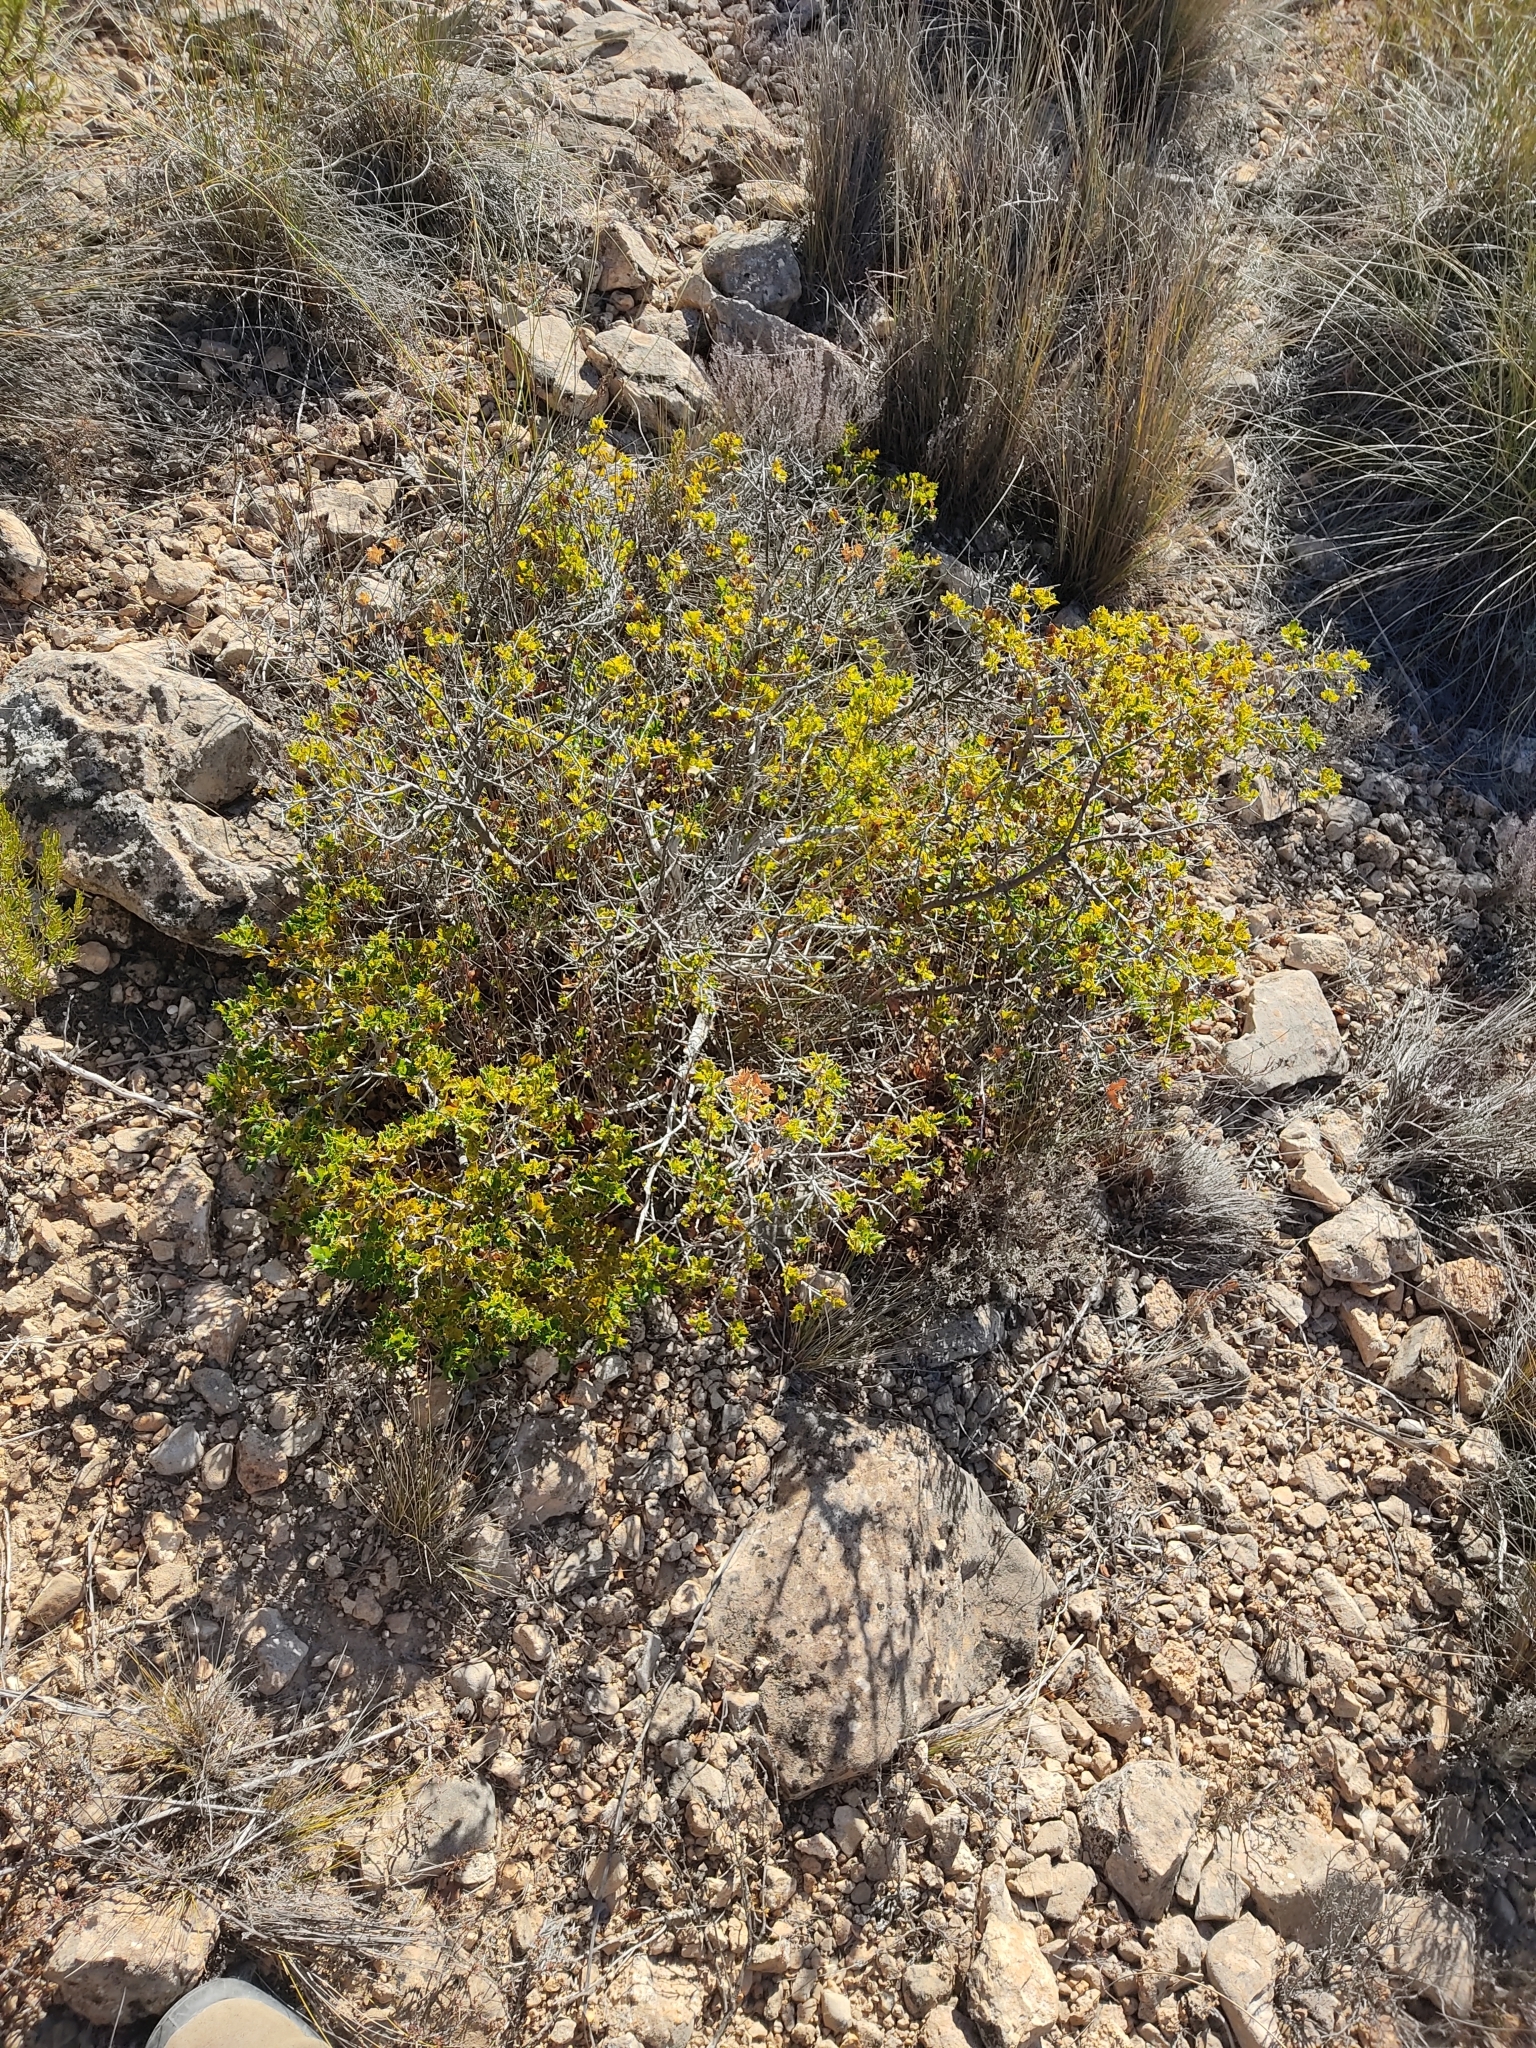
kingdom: Plantae
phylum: Tracheophyta
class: Magnoliopsida
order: Fagales
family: Fagaceae
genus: Quercus
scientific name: Quercus coccifera
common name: Kermes oak
